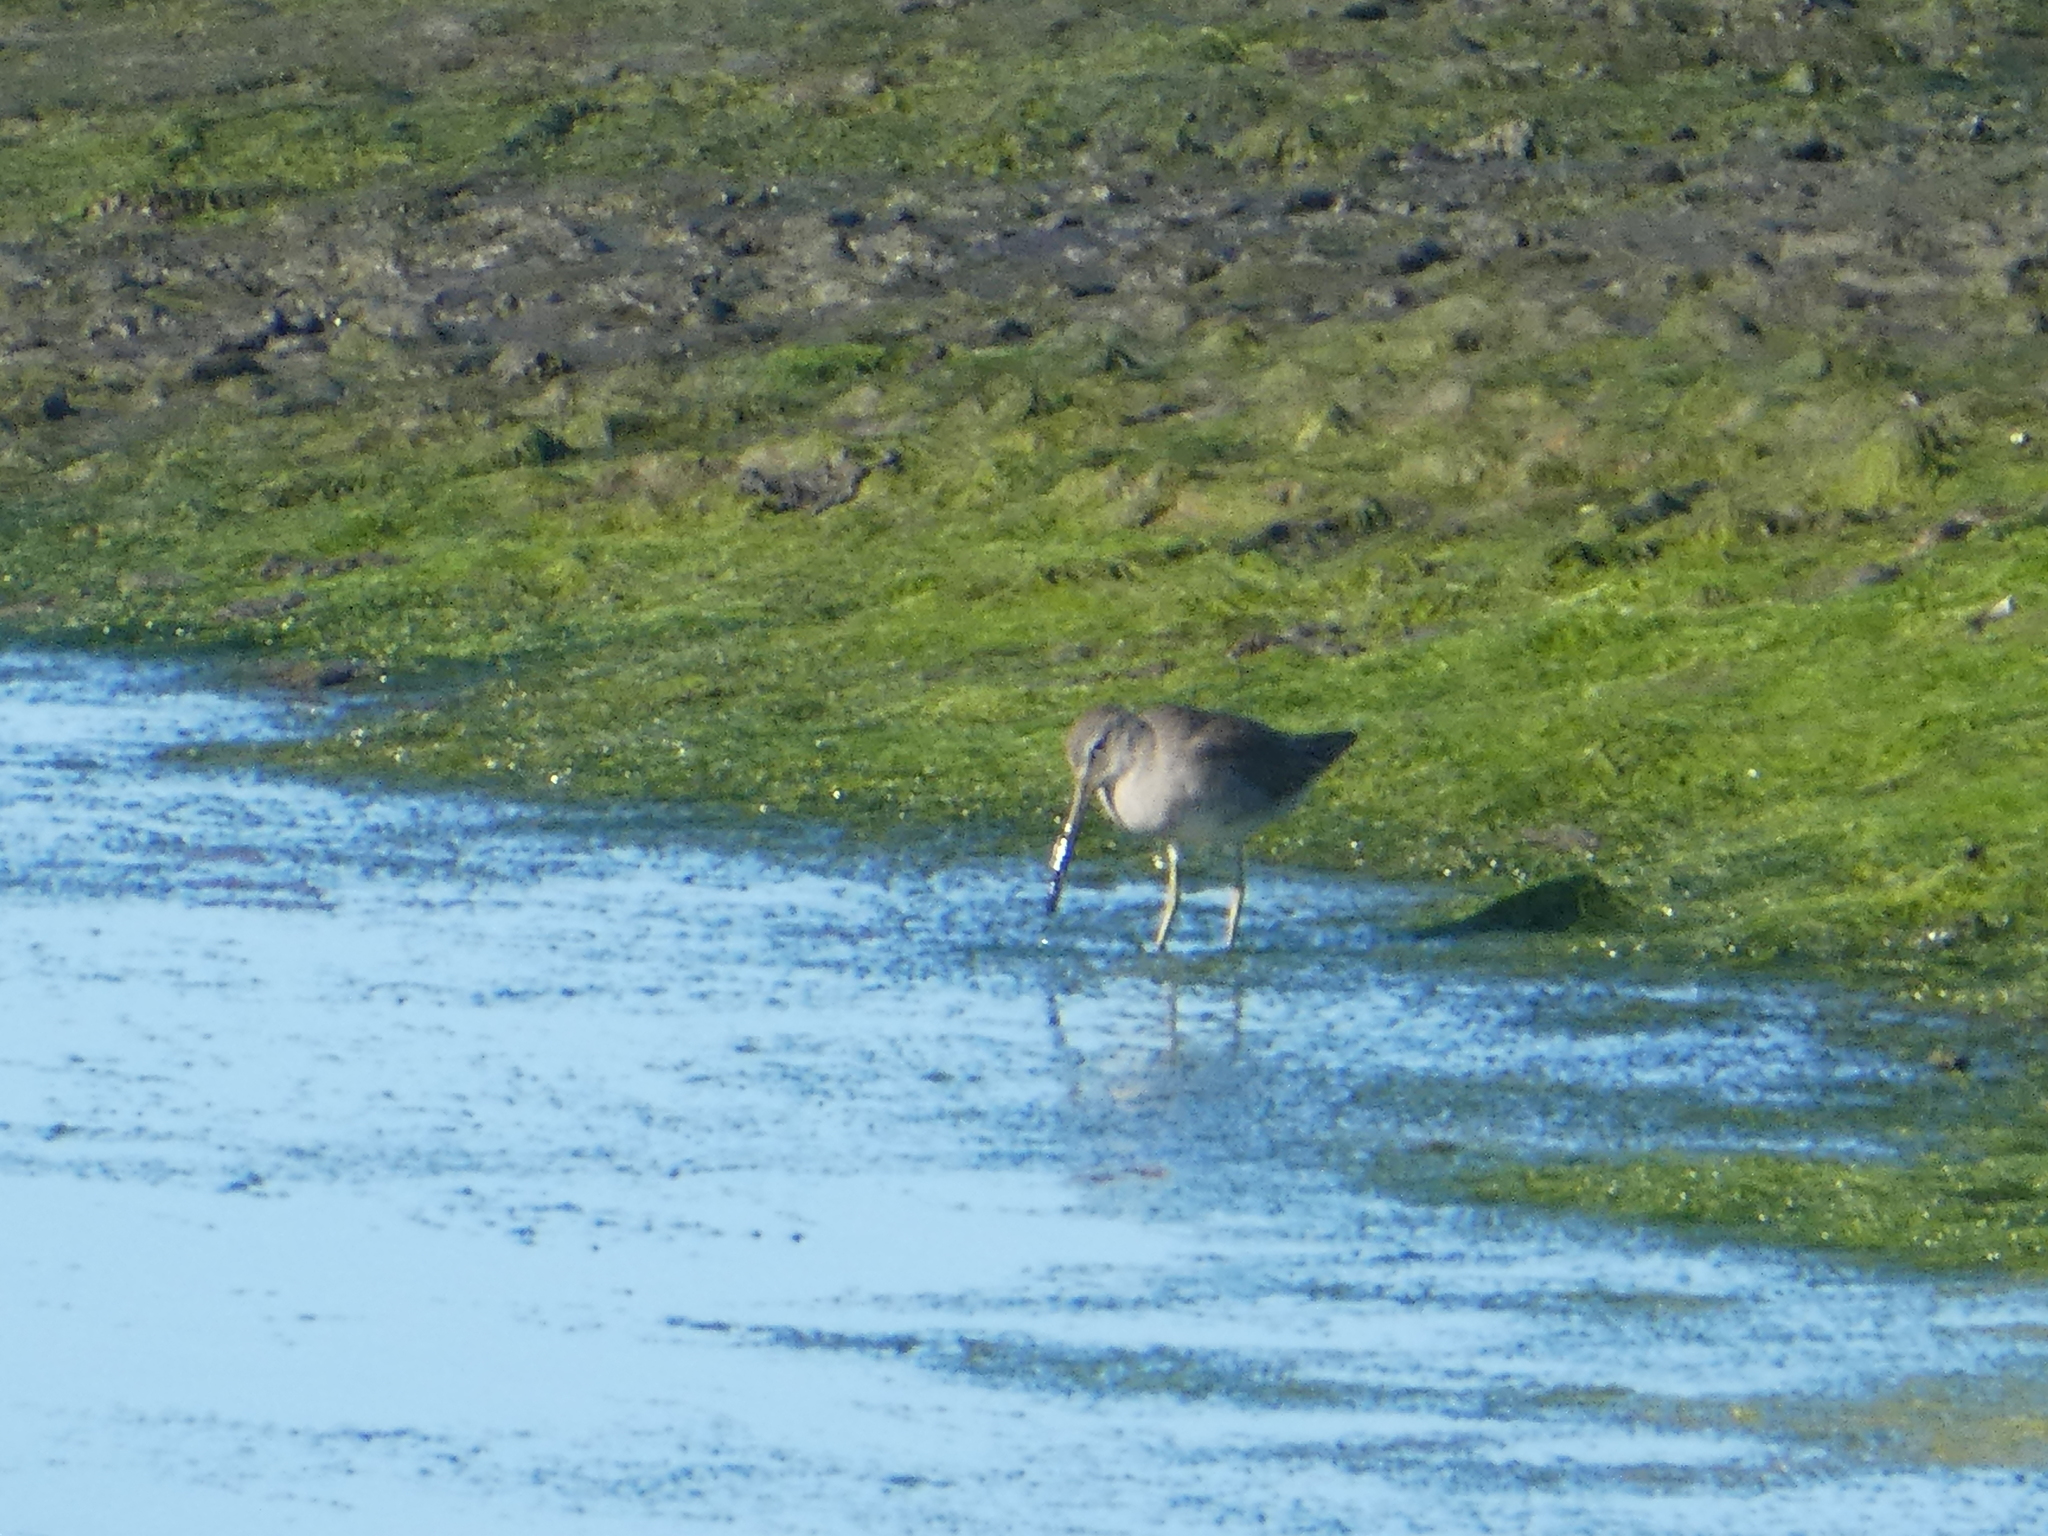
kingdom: Animalia
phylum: Chordata
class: Aves
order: Charadriiformes
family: Scolopacidae
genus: Limnodromus
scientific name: Limnodromus scolopaceus
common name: Long-billed dowitcher
